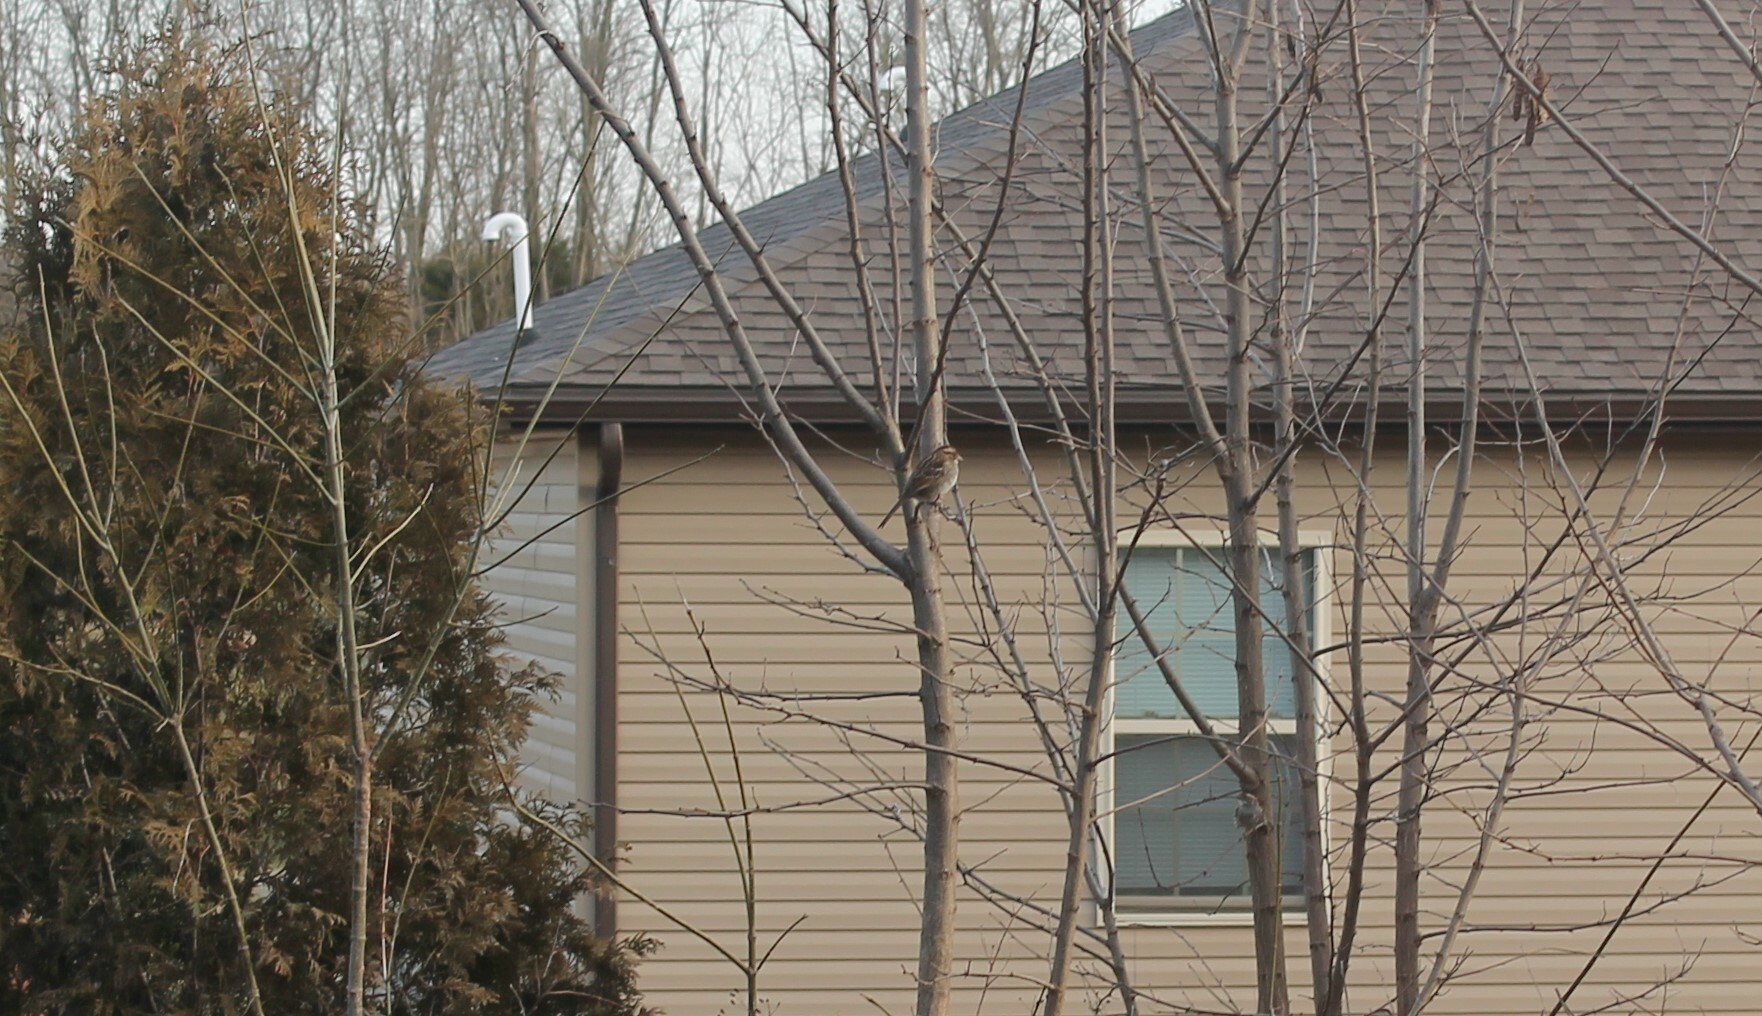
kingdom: Animalia
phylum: Chordata
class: Aves
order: Passeriformes
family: Passerellidae
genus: Zonotrichia
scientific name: Zonotrichia albicollis
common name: White-throated sparrow
